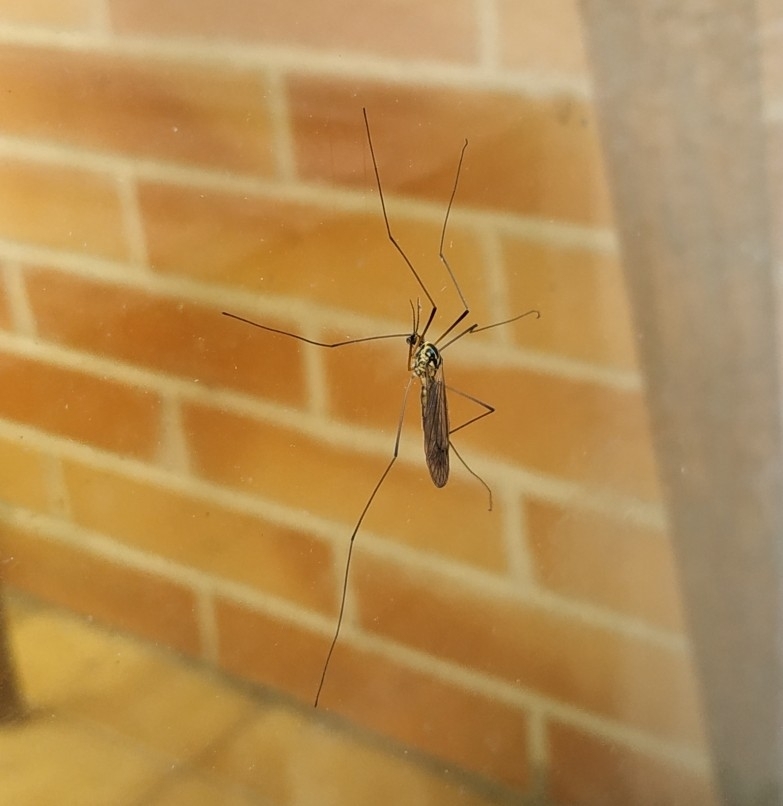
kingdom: Animalia
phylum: Arthropoda
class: Insecta
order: Diptera
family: Tipulidae
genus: Nephrotoma
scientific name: Nephrotoma
